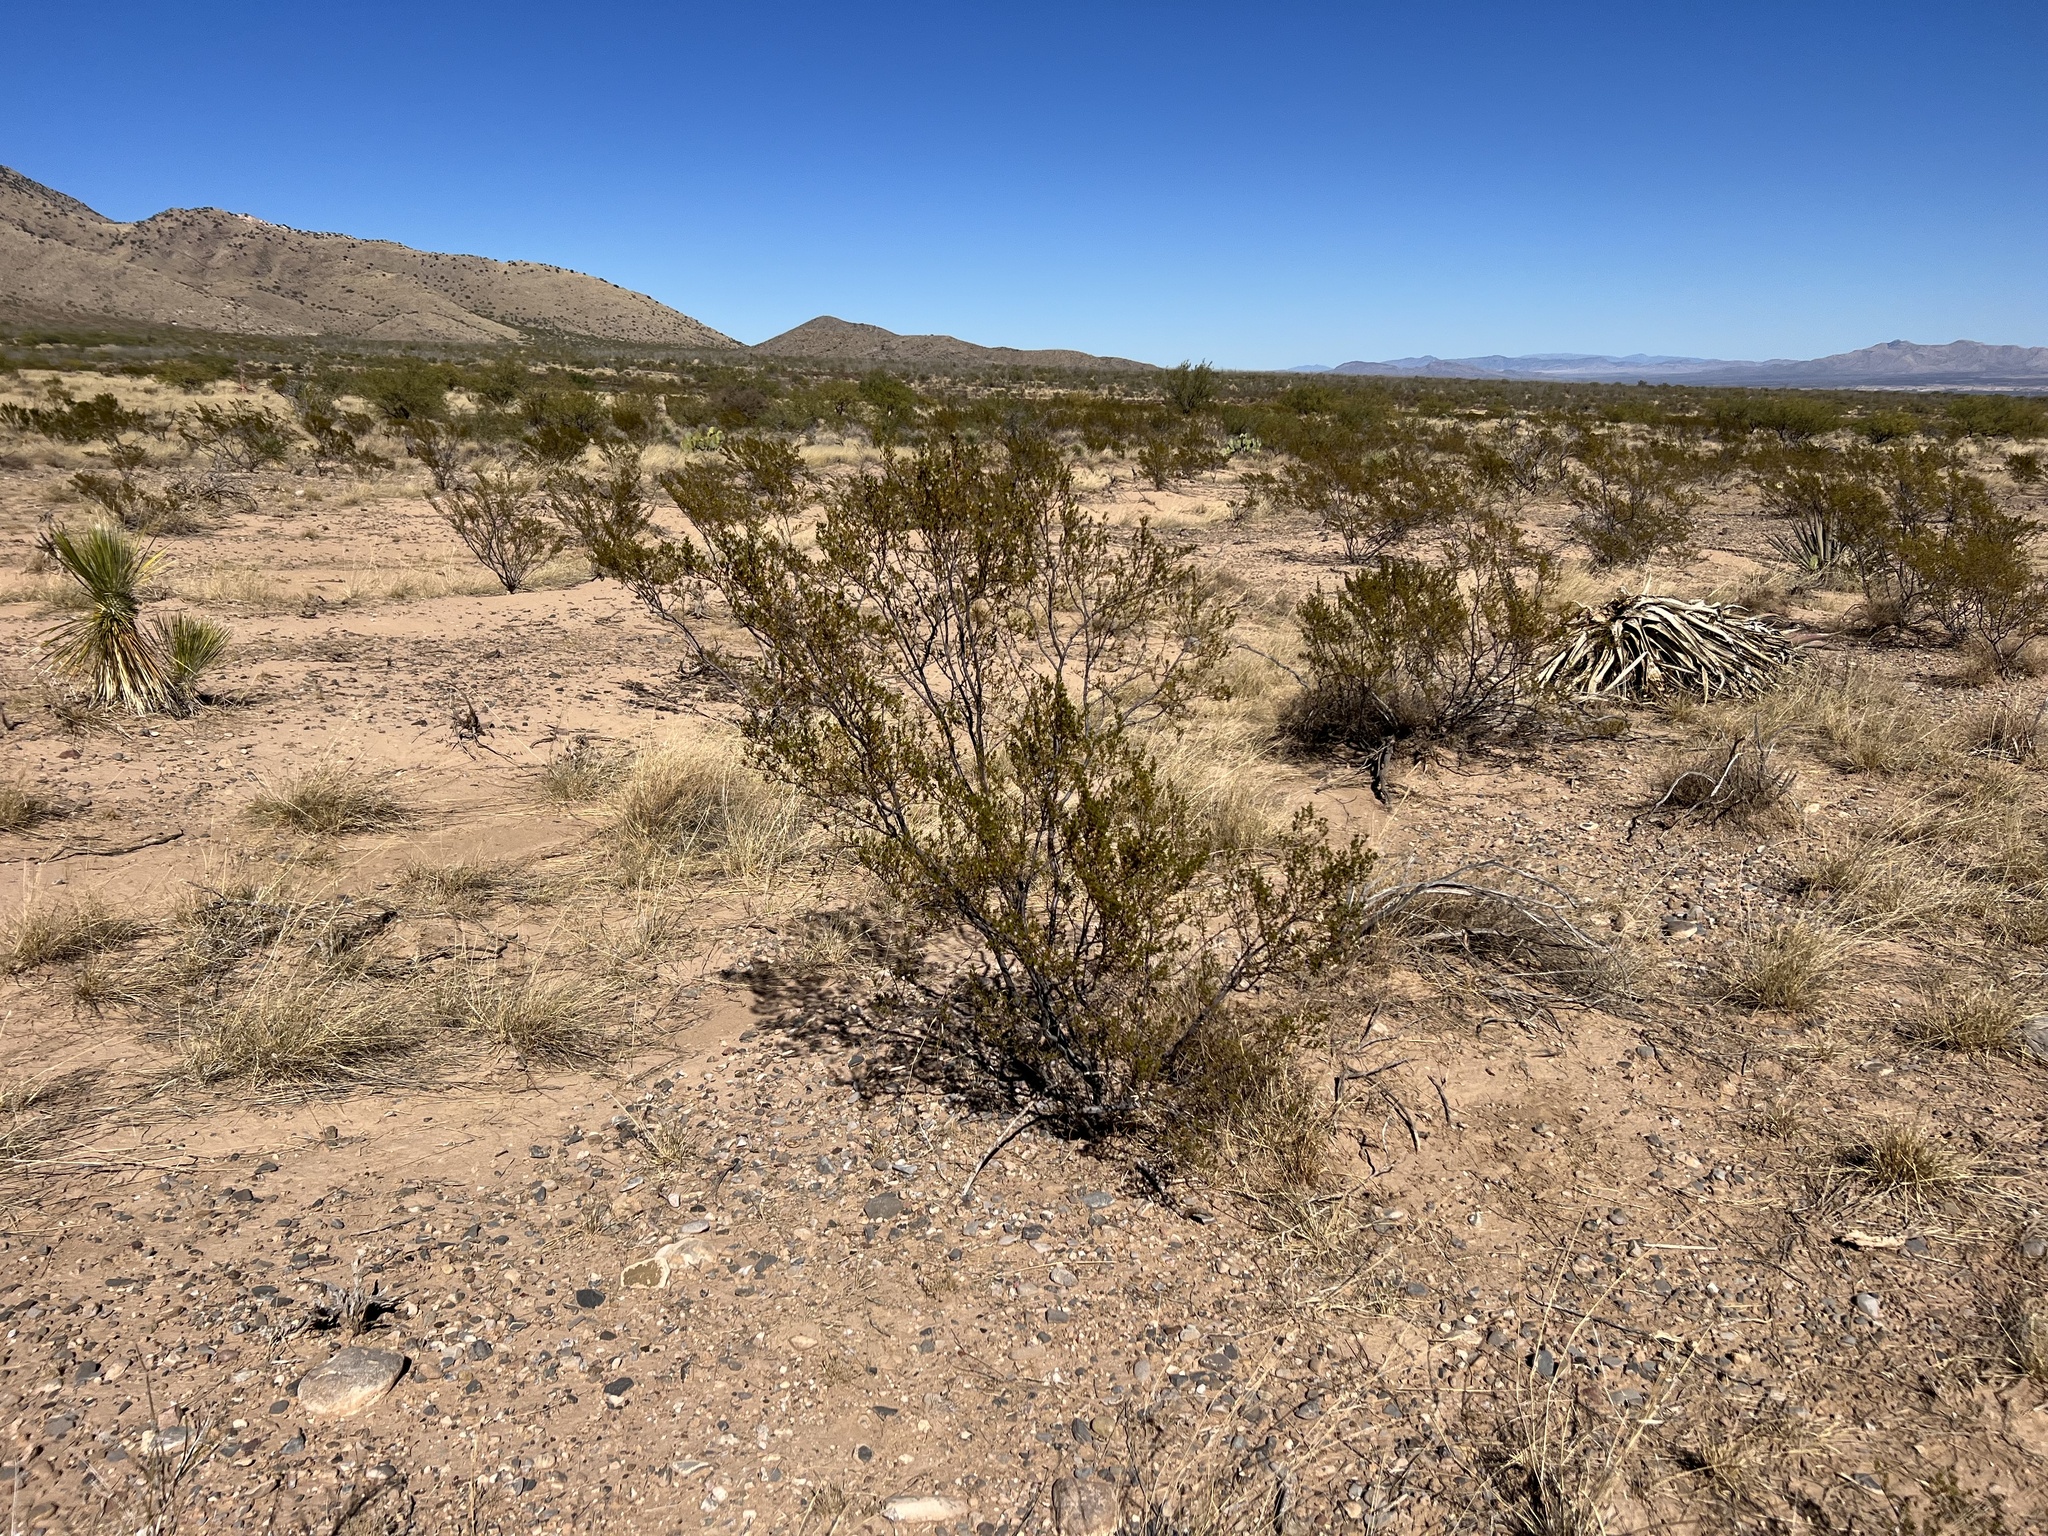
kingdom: Plantae
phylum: Tracheophyta
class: Magnoliopsida
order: Zygophyllales
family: Zygophyllaceae
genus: Larrea
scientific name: Larrea tridentata
